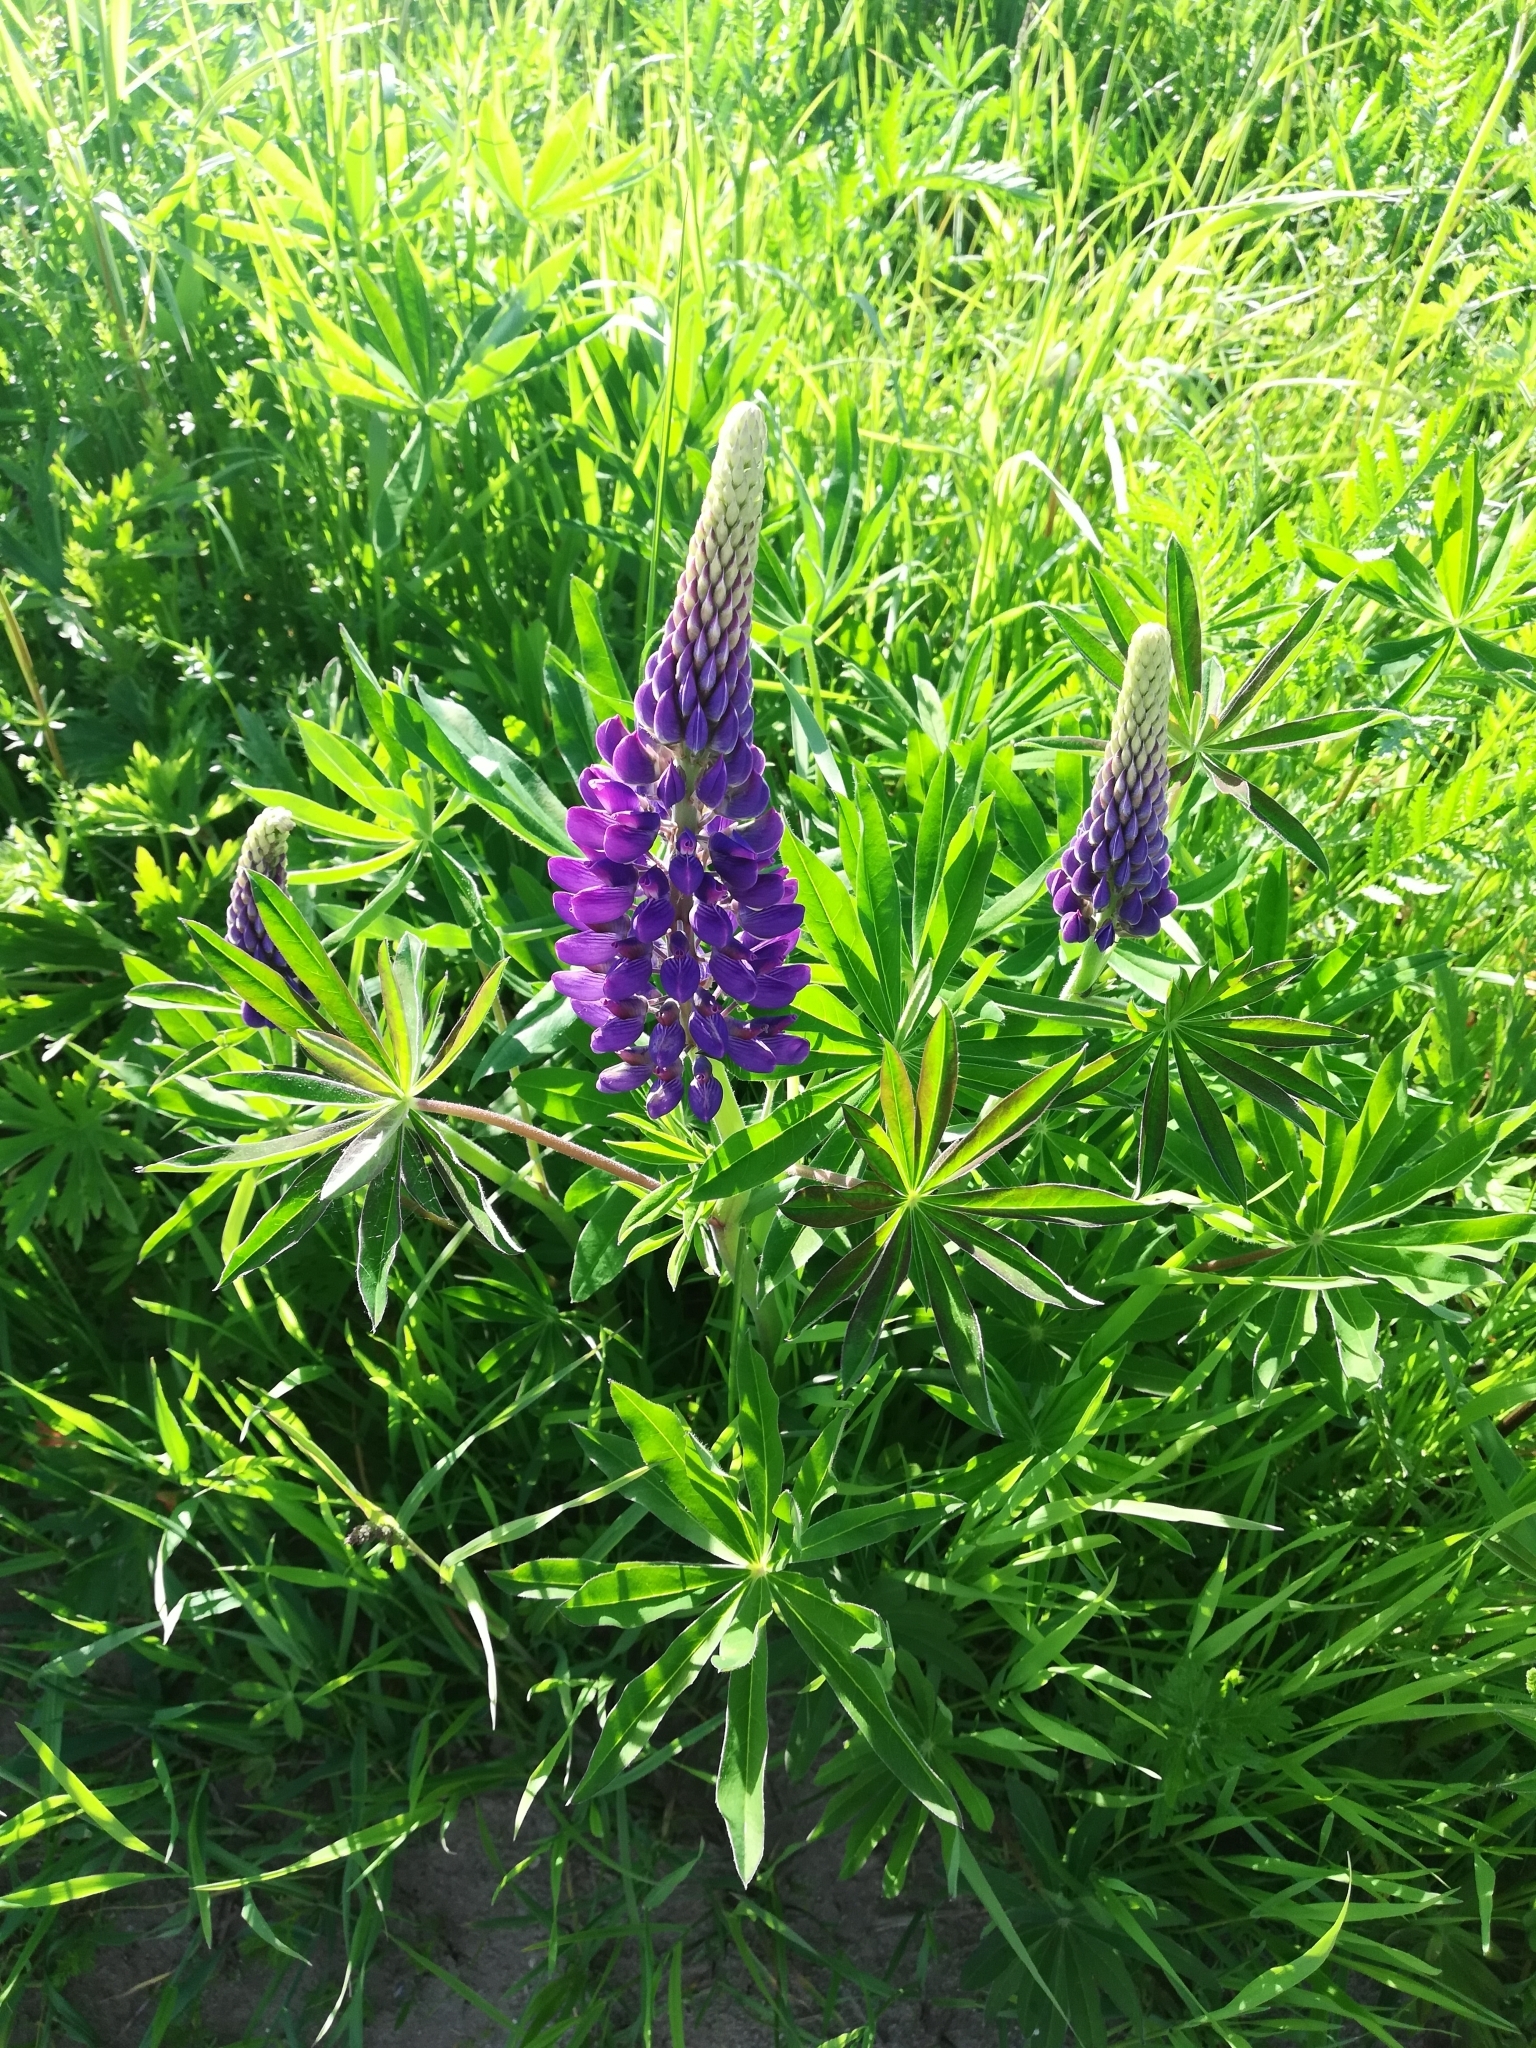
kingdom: Plantae
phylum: Tracheophyta
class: Magnoliopsida
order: Fabales
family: Fabaceae
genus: Lupinus
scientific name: Lupinus polyphyllus
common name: Garden lupin
